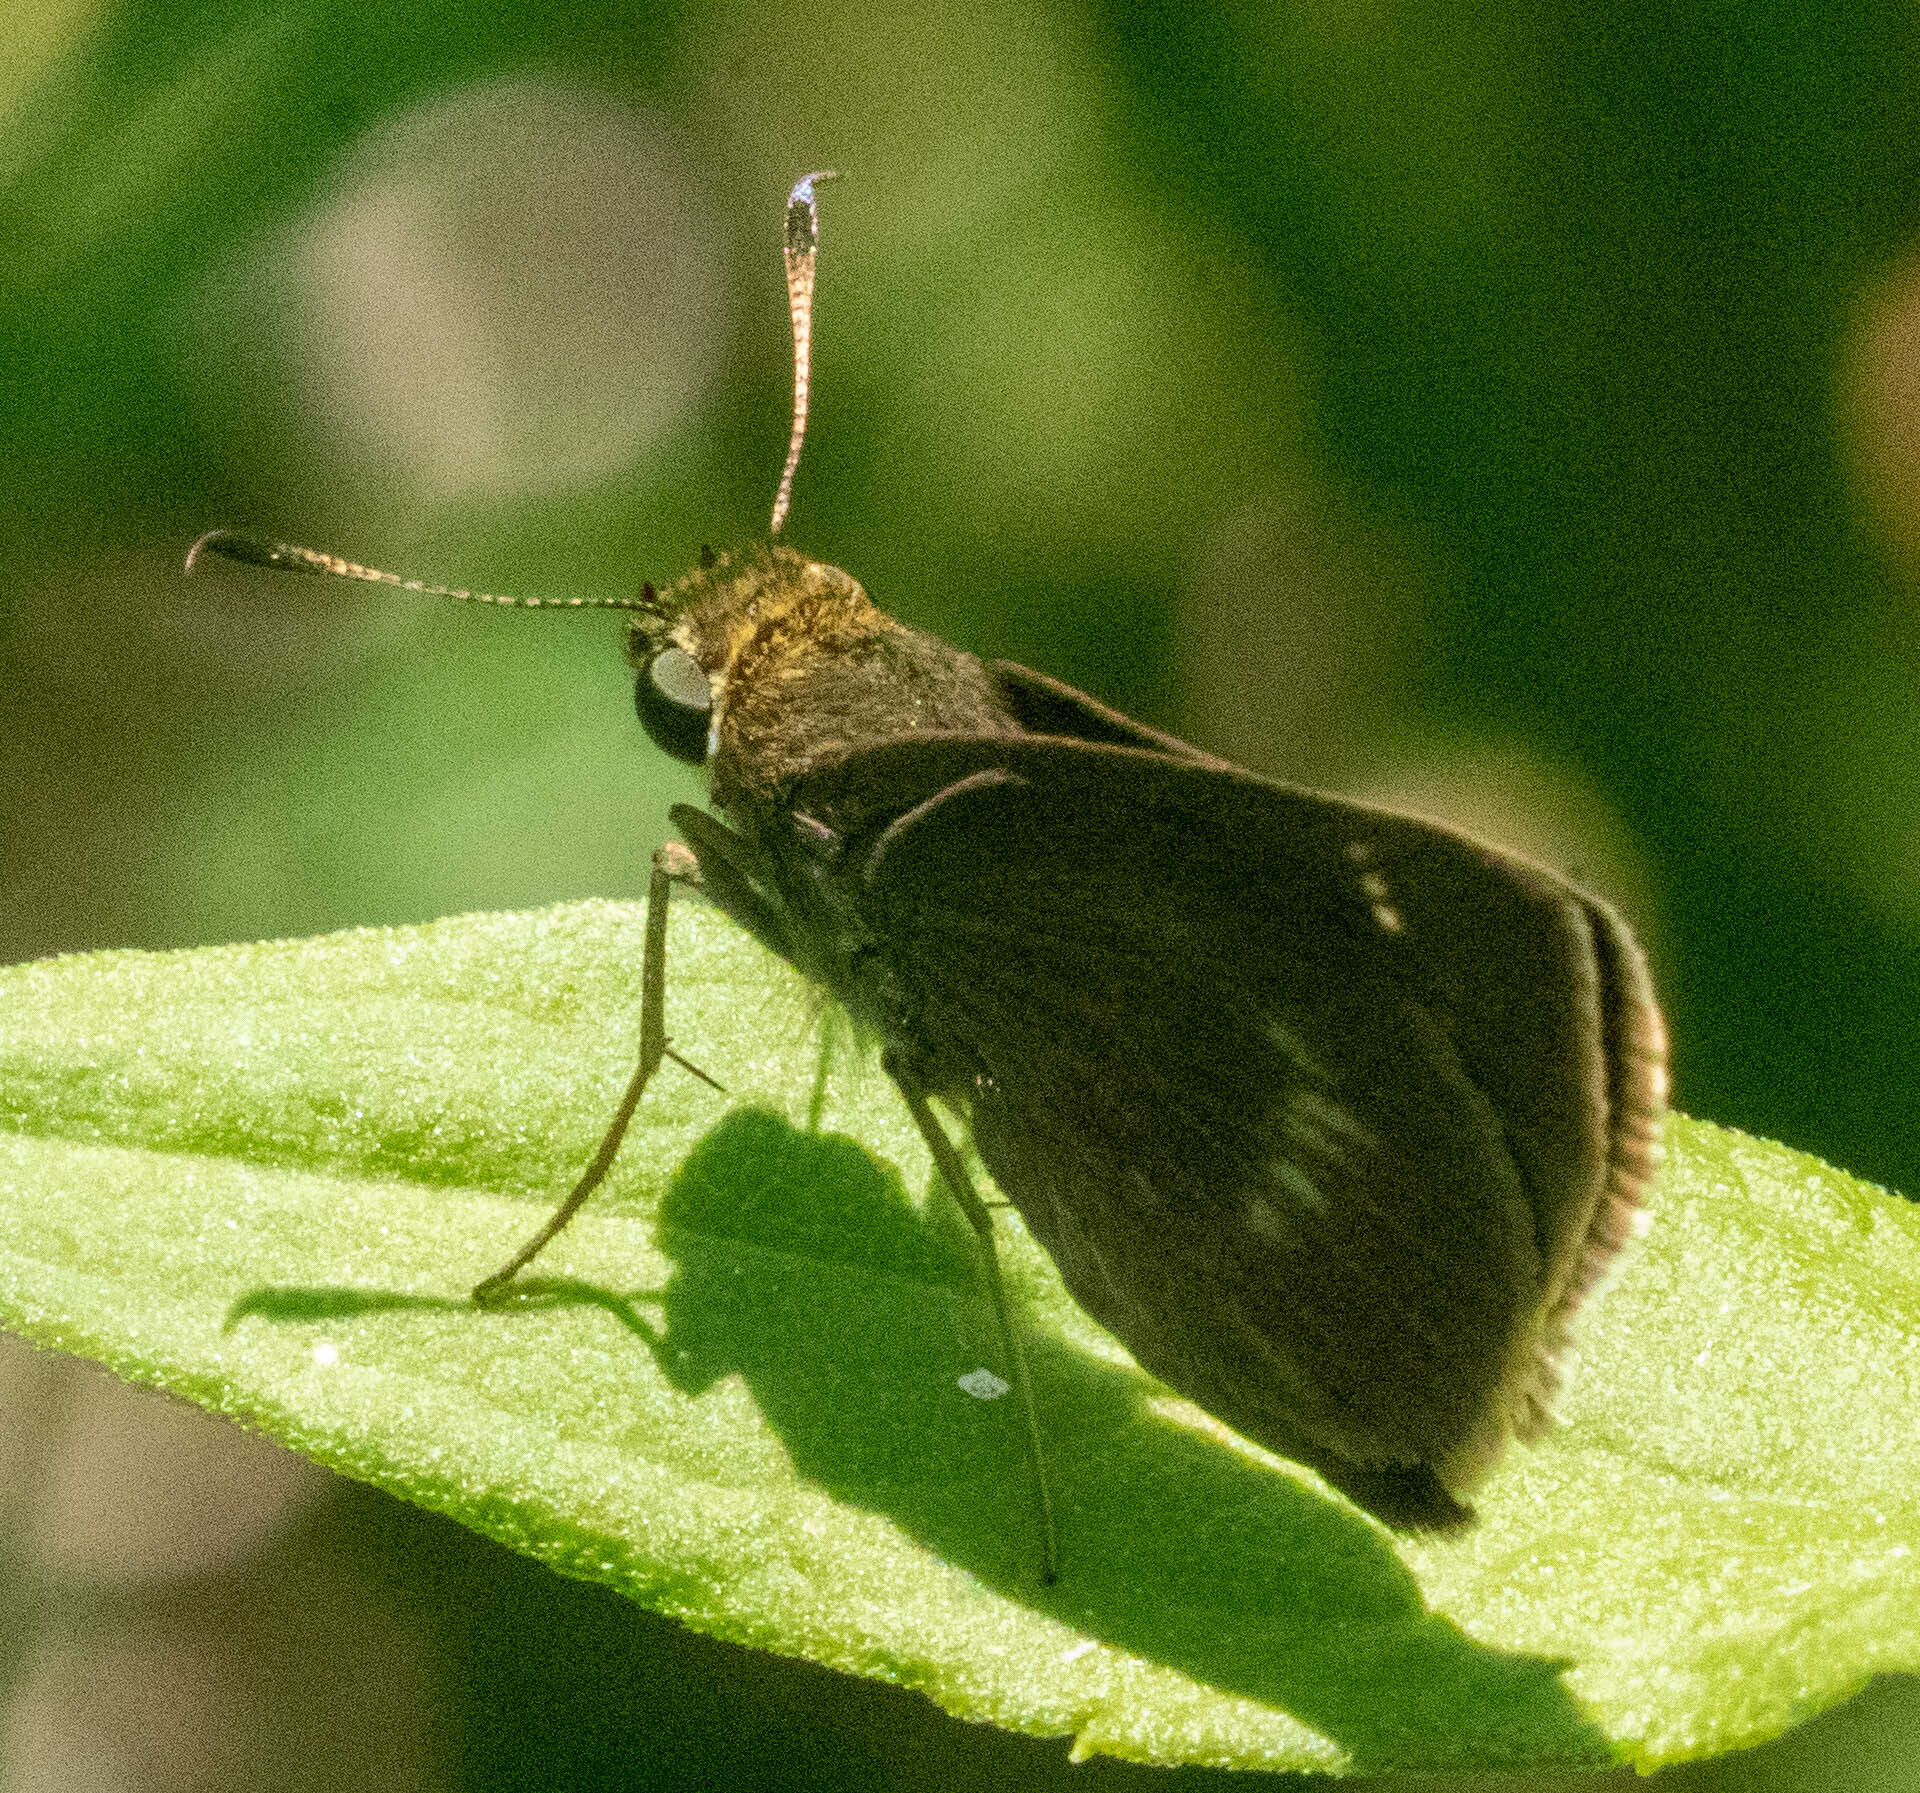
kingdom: Animalia
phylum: Arthropoda
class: Insecta
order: Lepidoptera
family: Hesperiidae
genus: Euphyes
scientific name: Euphyes vestris
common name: Dun skipper
